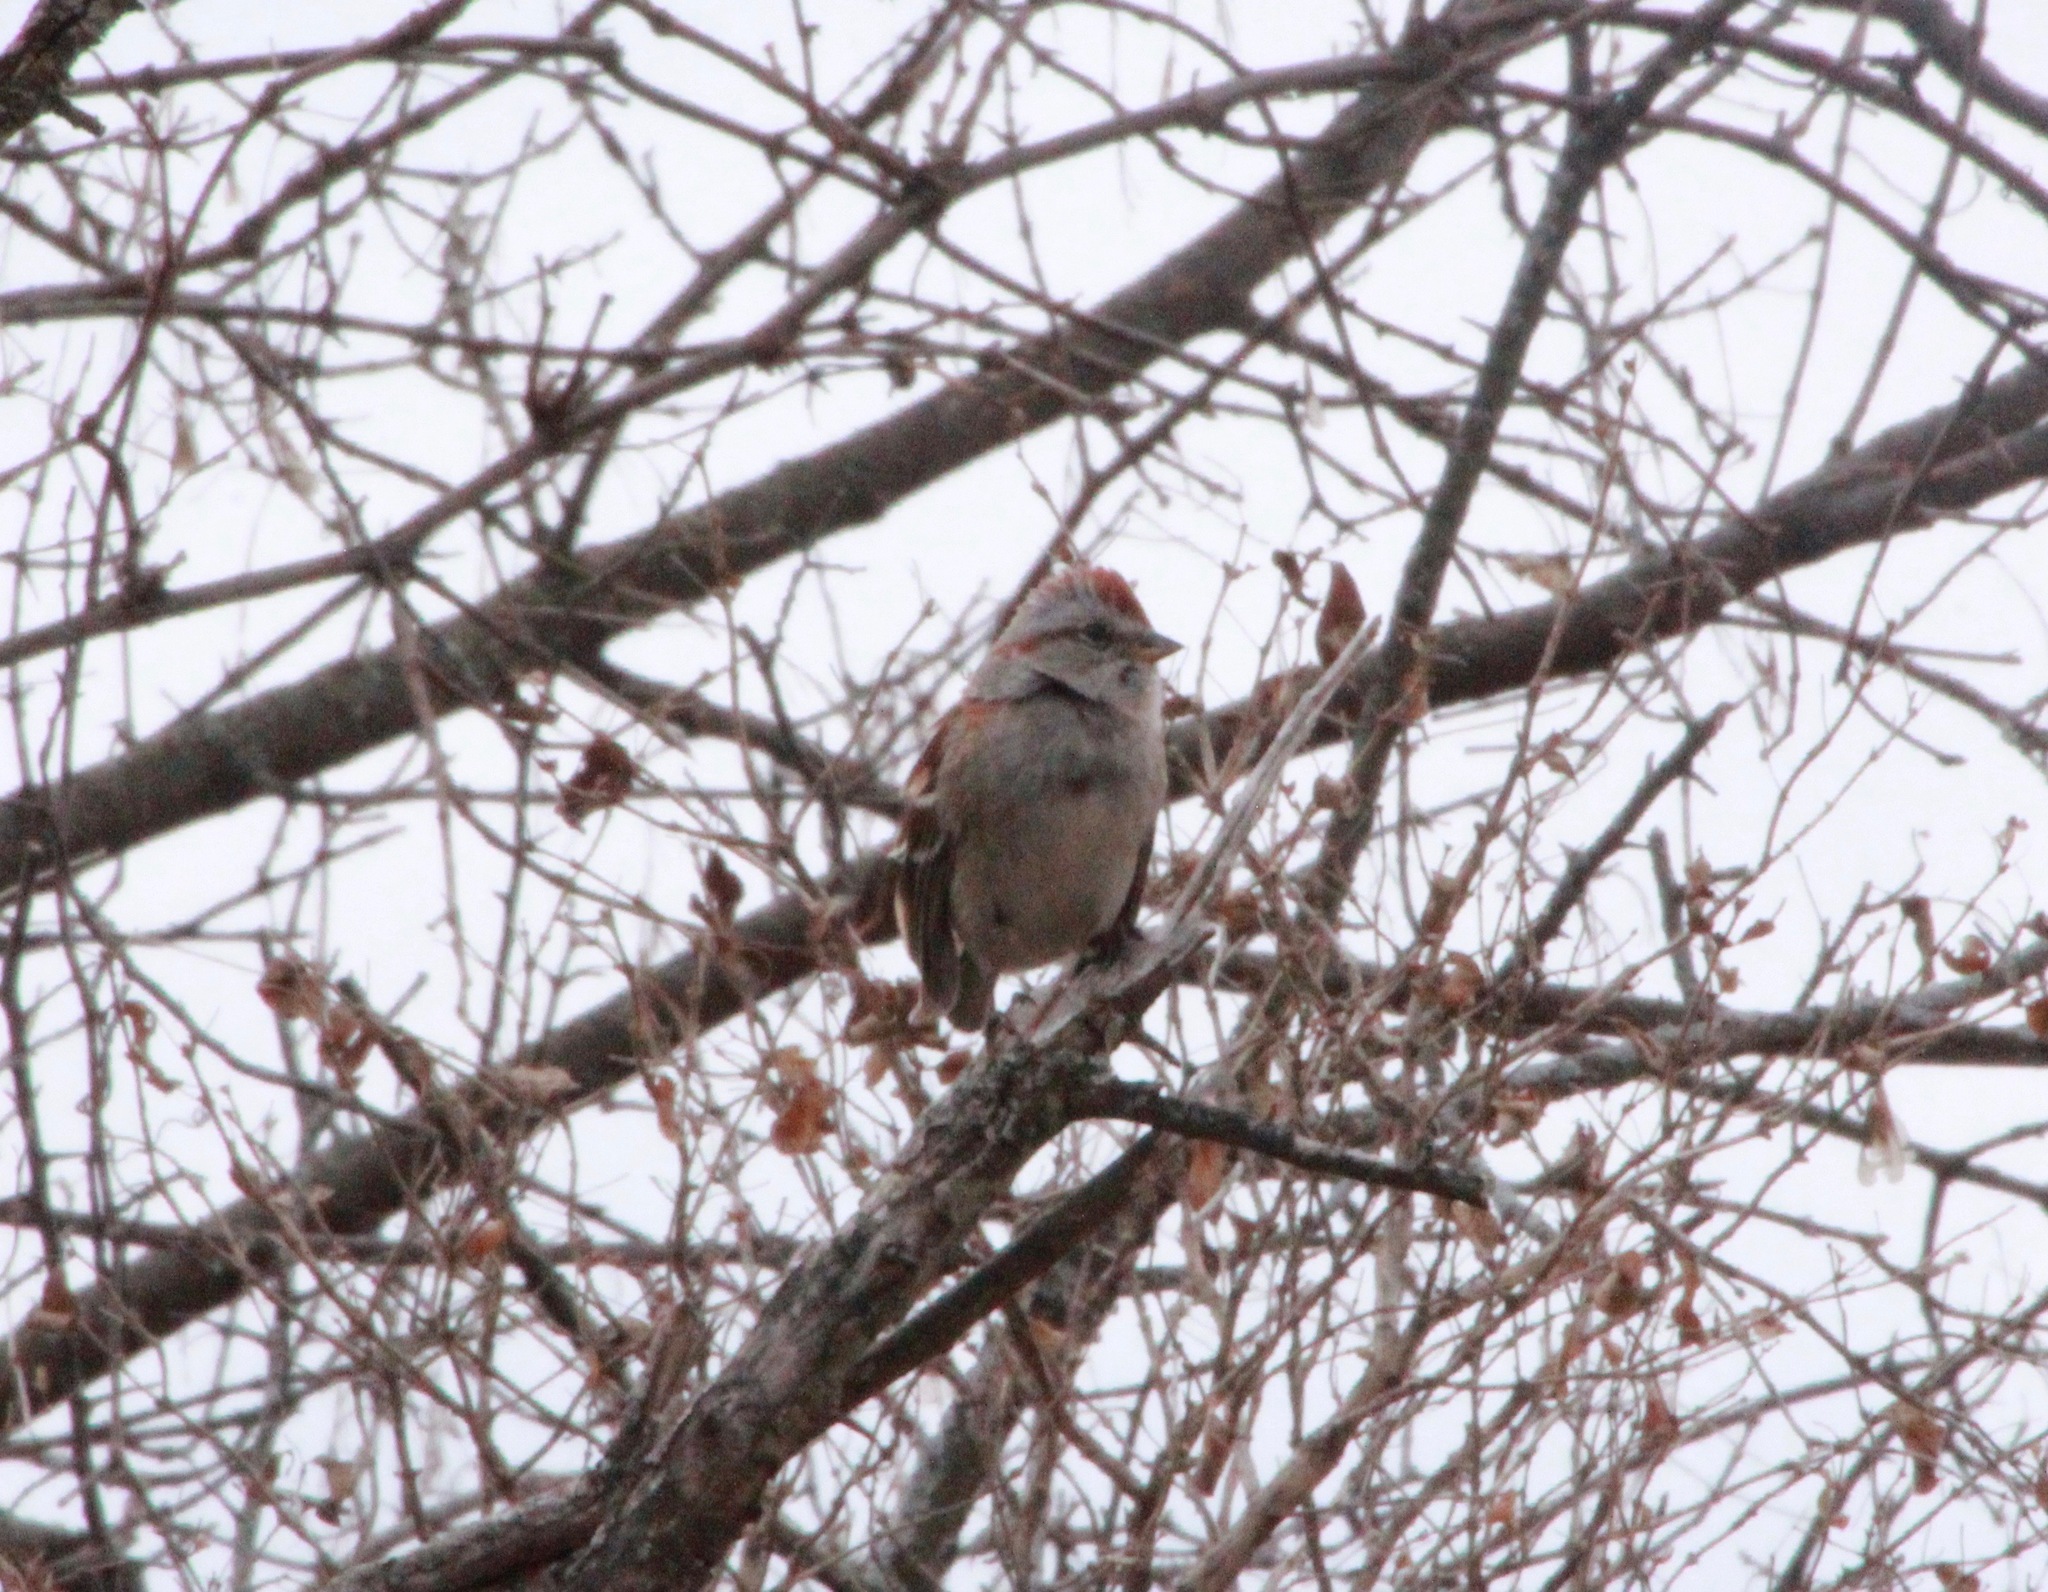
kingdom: Animalia
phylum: Chordata
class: Aves
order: Passeriformes
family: Passerellidae
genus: Spizelloides
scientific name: Spizelloides arborea
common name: American tree sparrow
